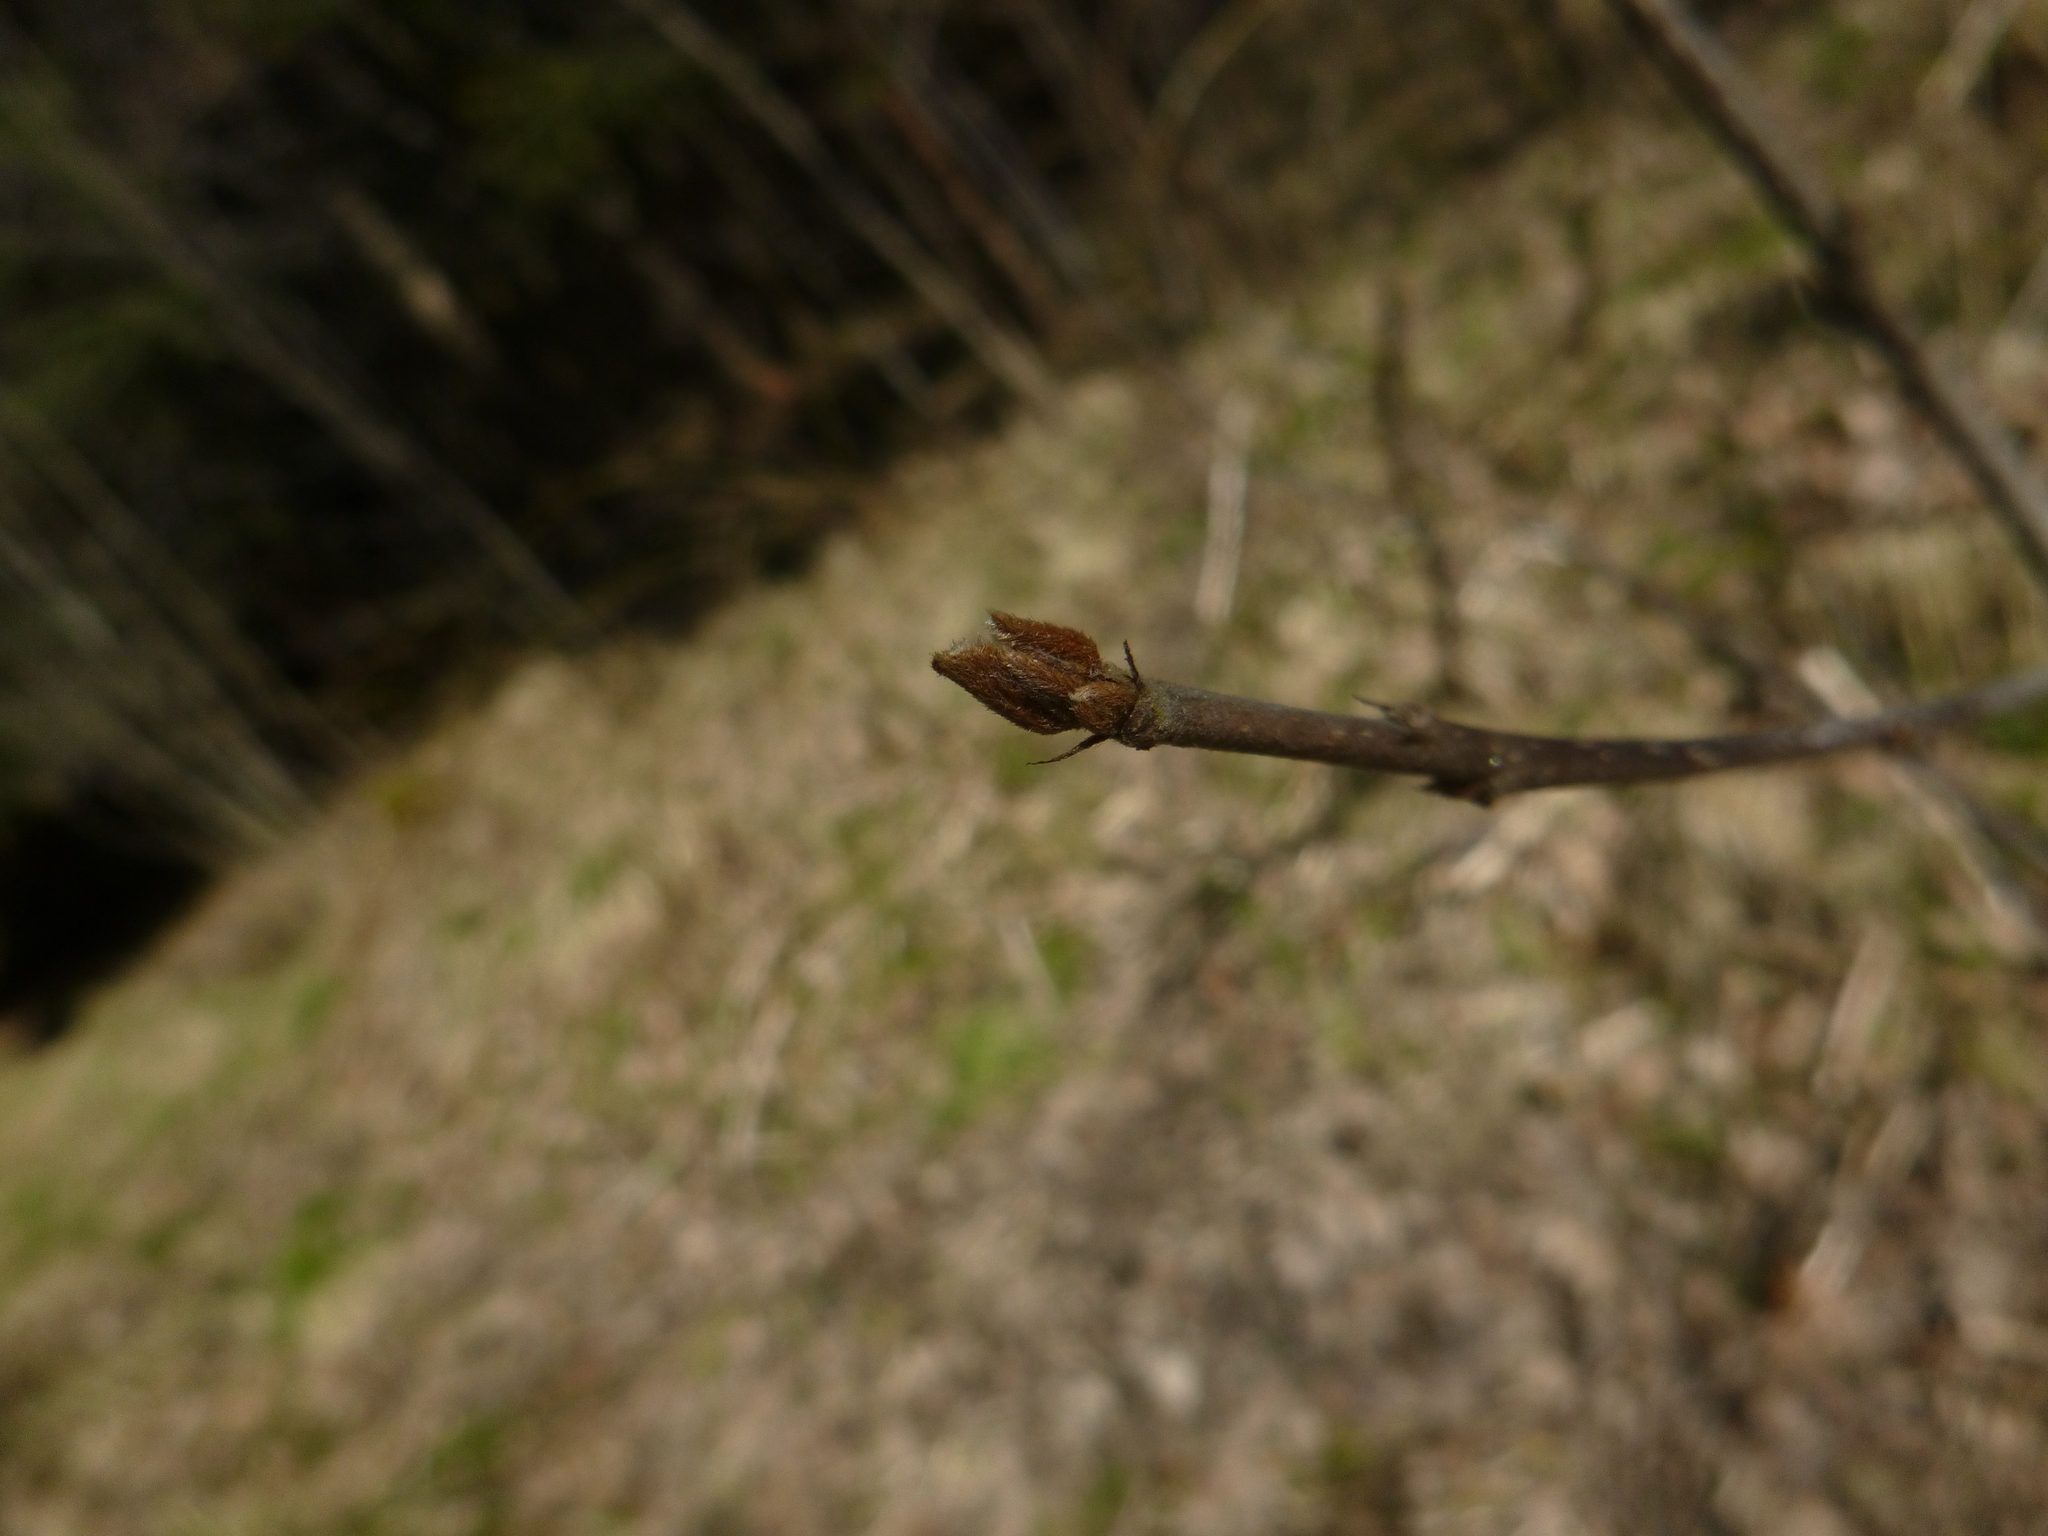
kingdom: Plantae
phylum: Tracheophyta
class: Magnoliopsida
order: Rosales
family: Rhamnaceae
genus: Frangula
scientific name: Frangula alnus
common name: Alder buckthorn
